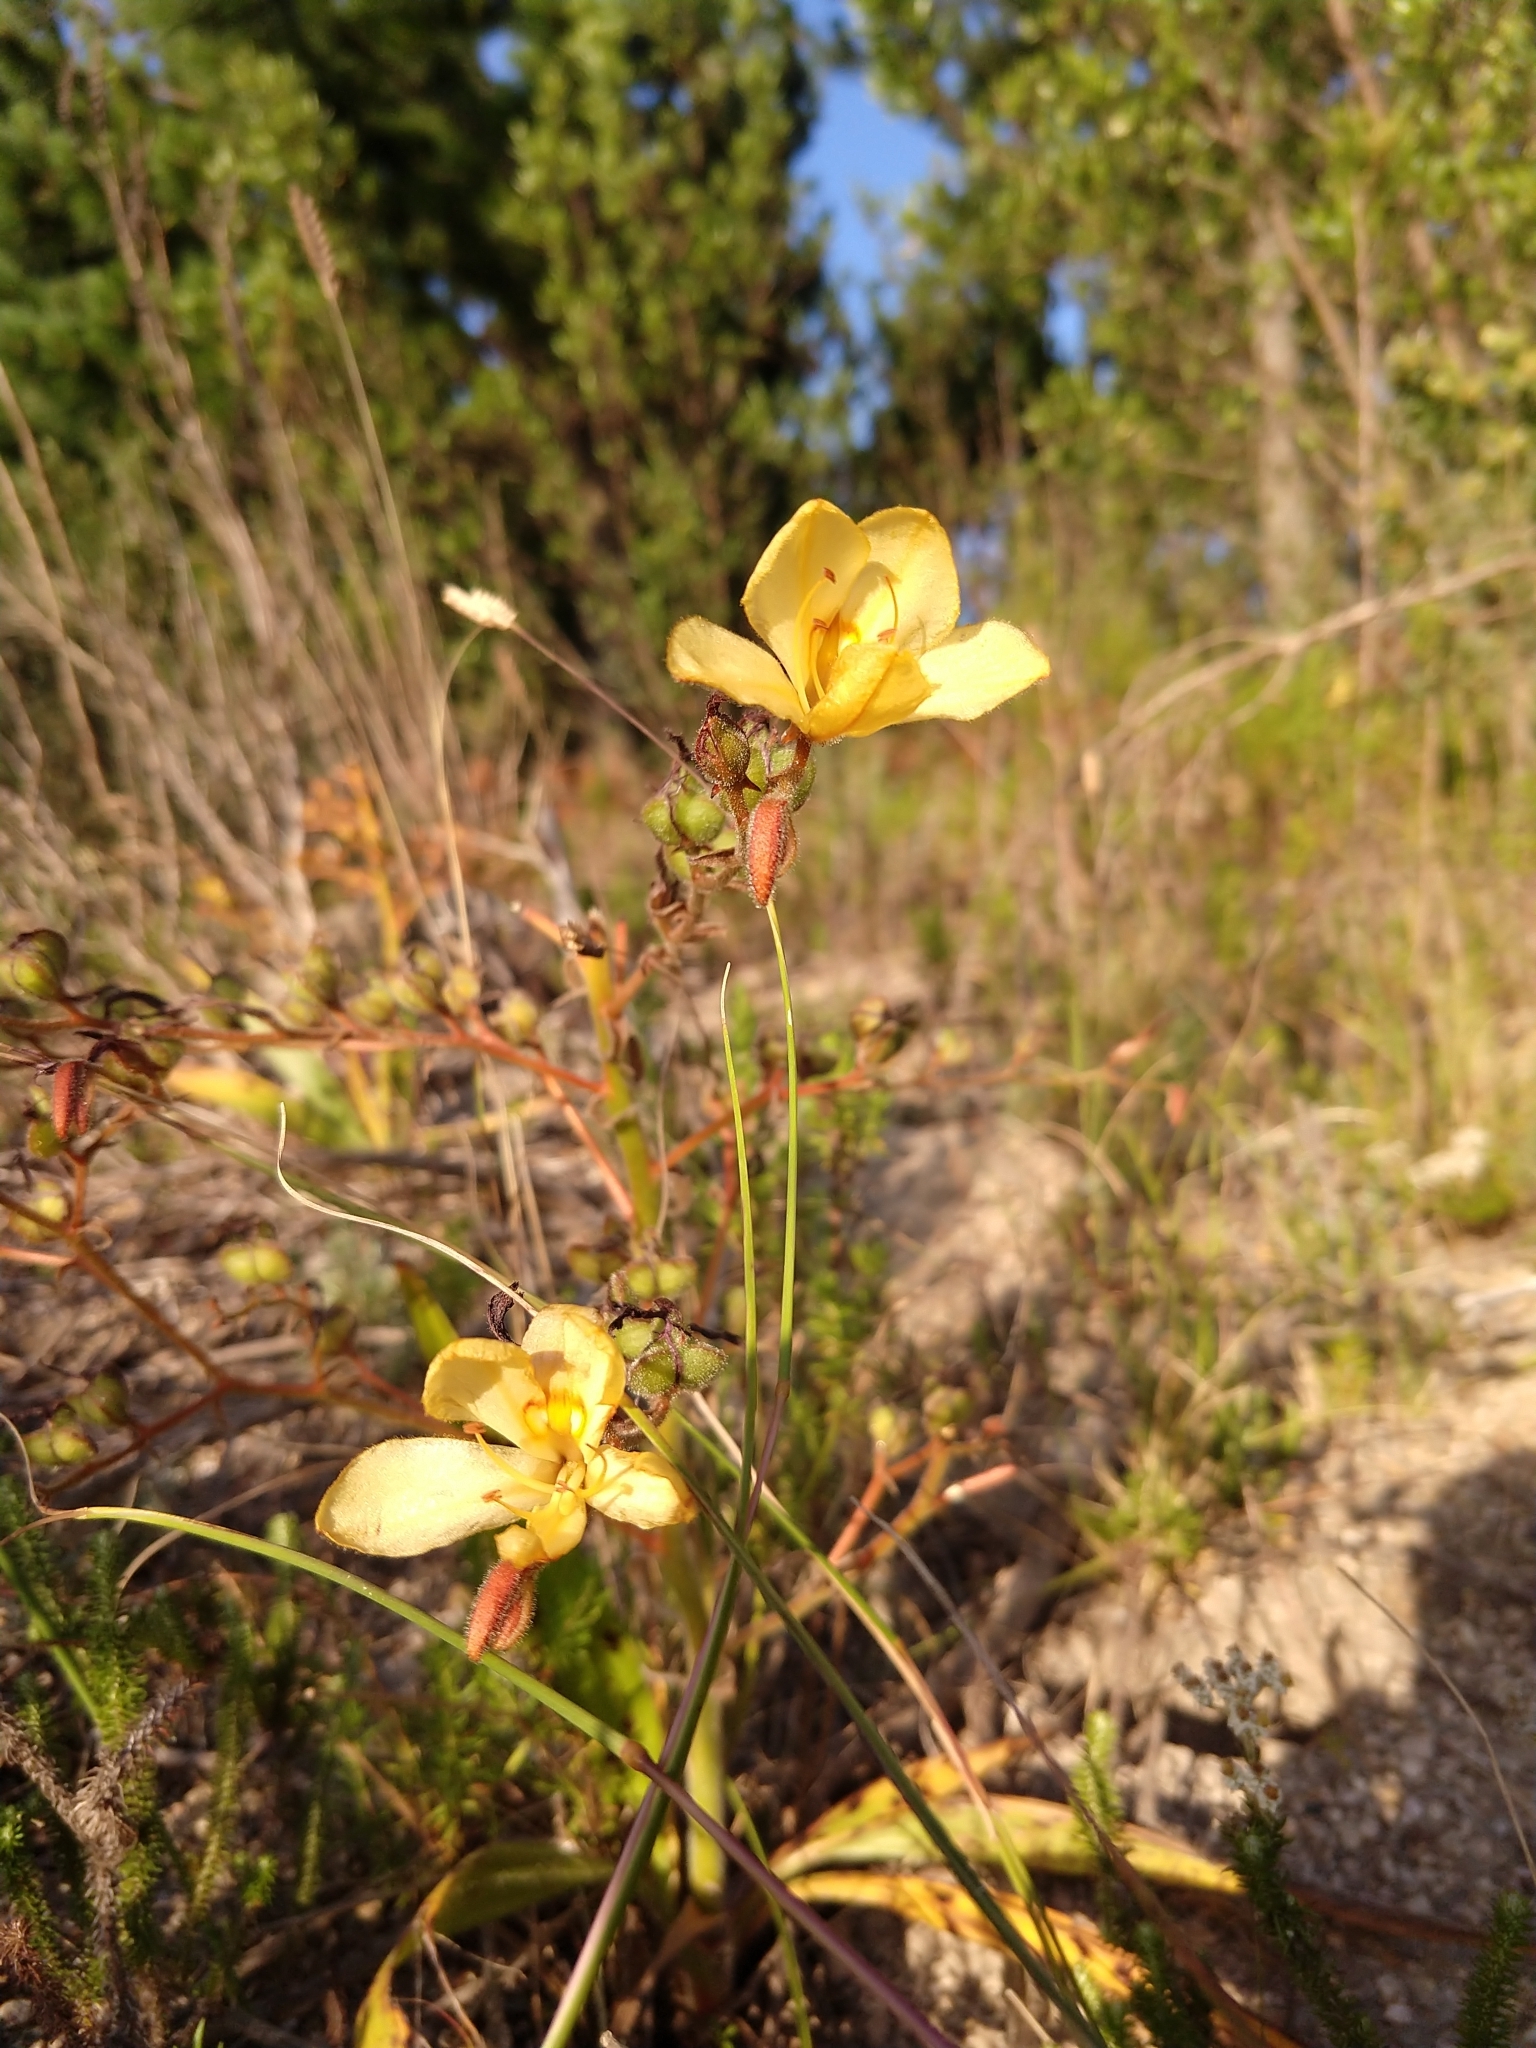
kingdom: Plantae
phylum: Tracheophyta
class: Liliopsida
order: Commelinales
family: Haemodoraceae
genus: Wachendorfia
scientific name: Wachendorfia paniculata
